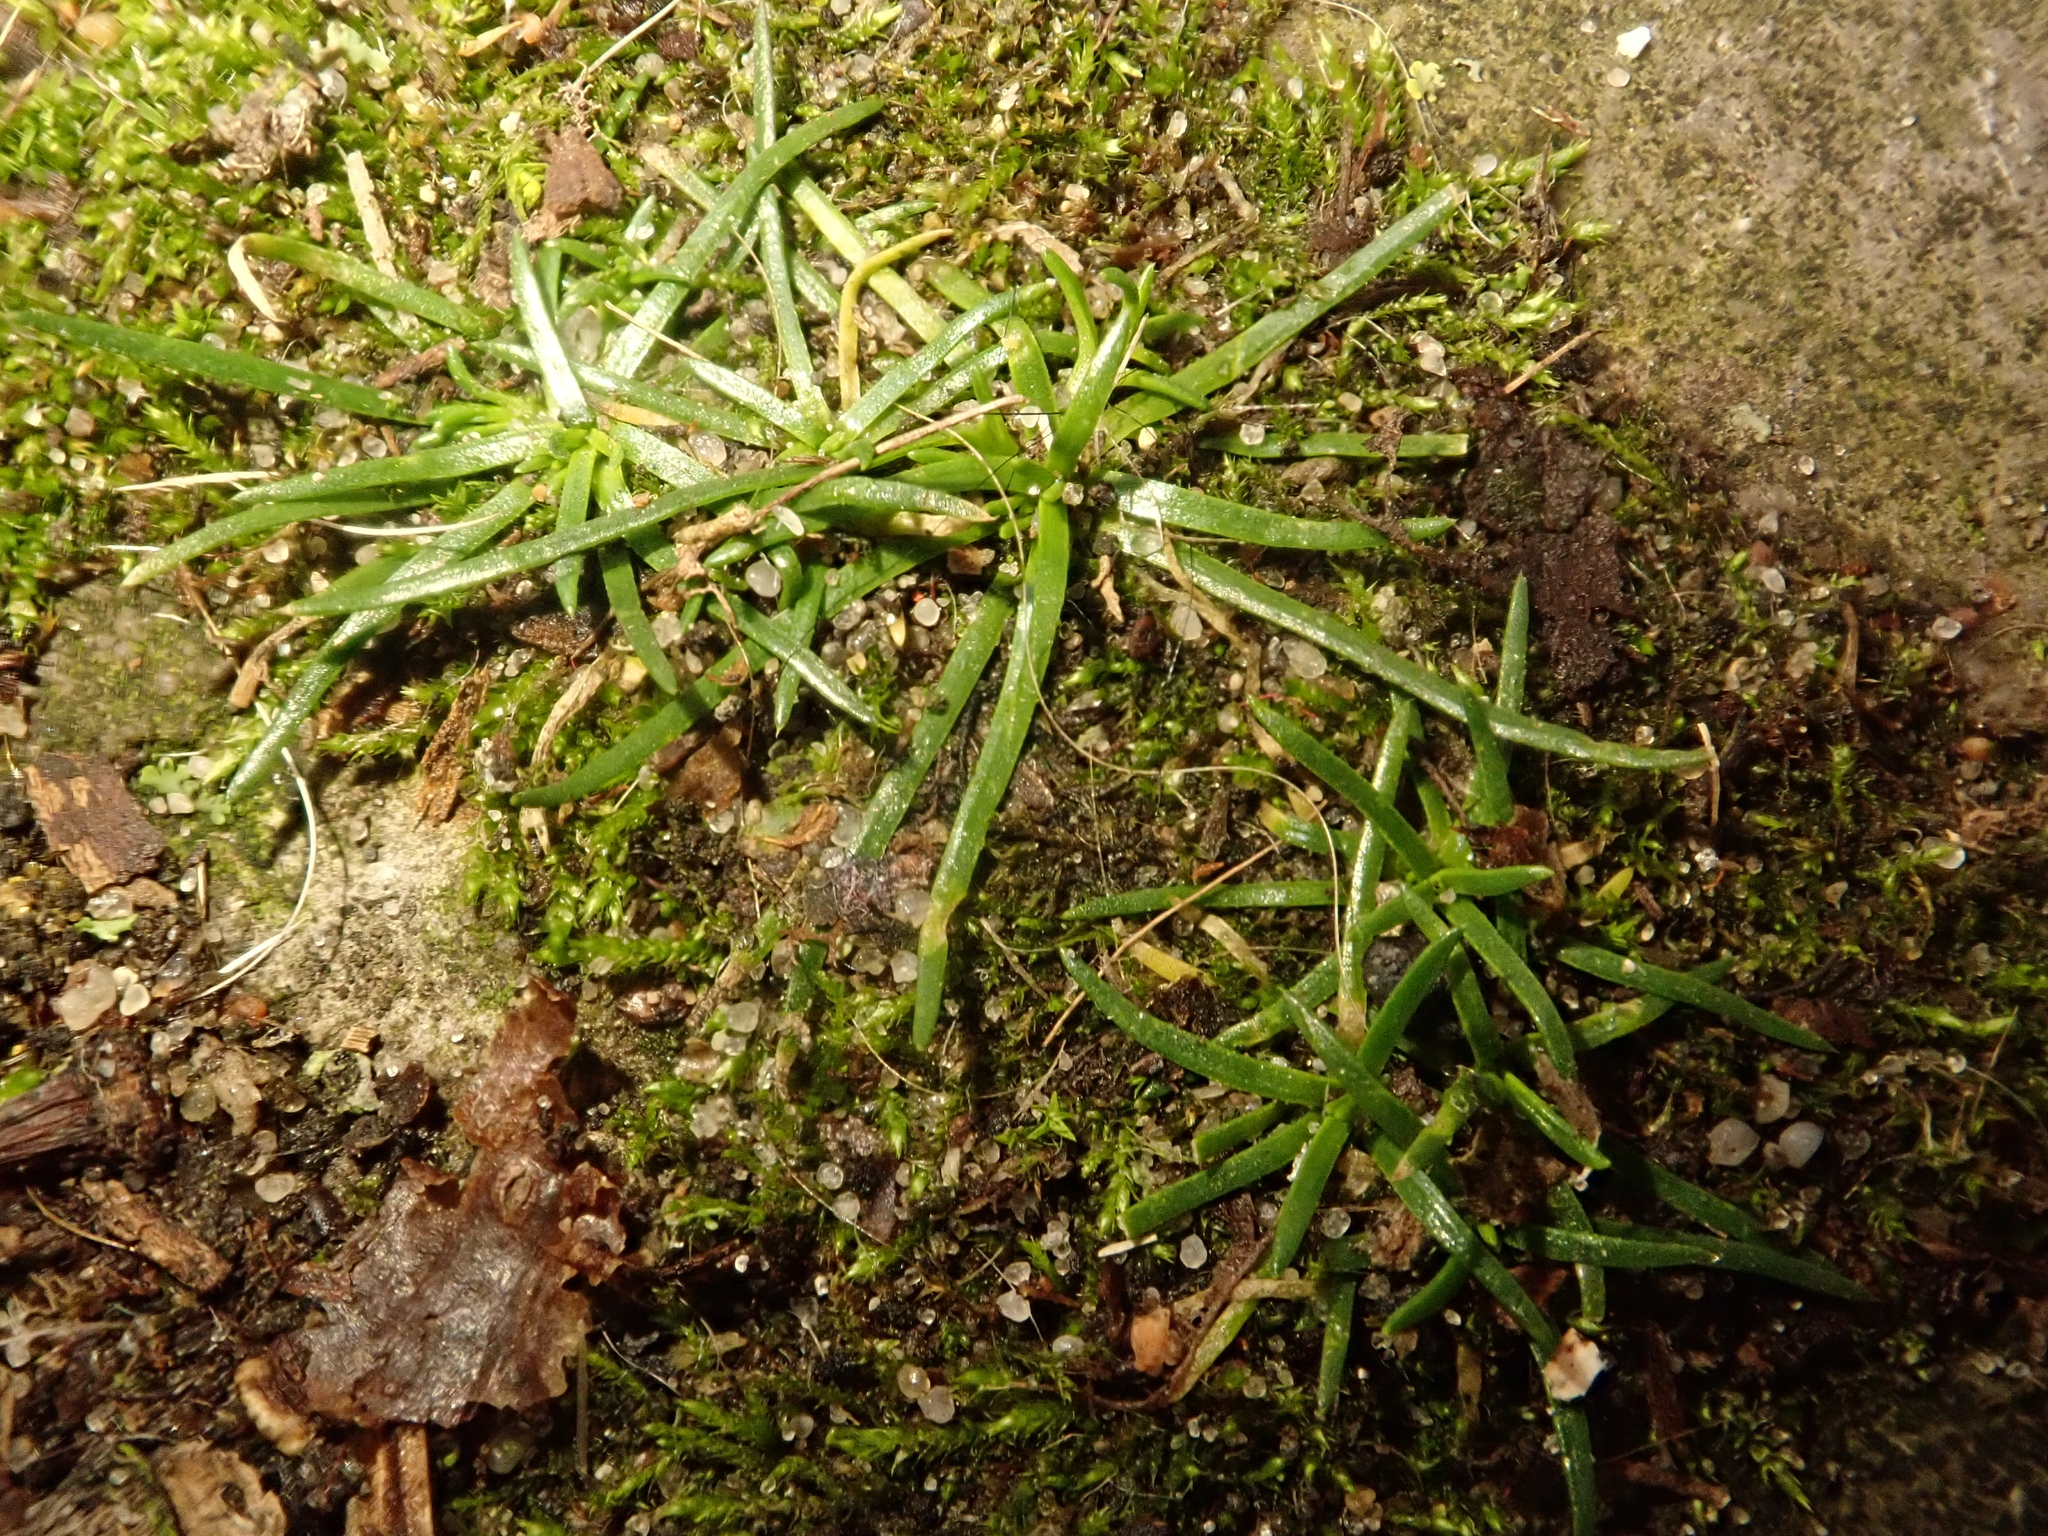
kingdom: Plantae
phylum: Tracheophyta
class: Magnoliopsida
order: Caryophyllales
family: Caryophyllaceae
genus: Sagina
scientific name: Sagina procumbens
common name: Procumbent pearlwort
